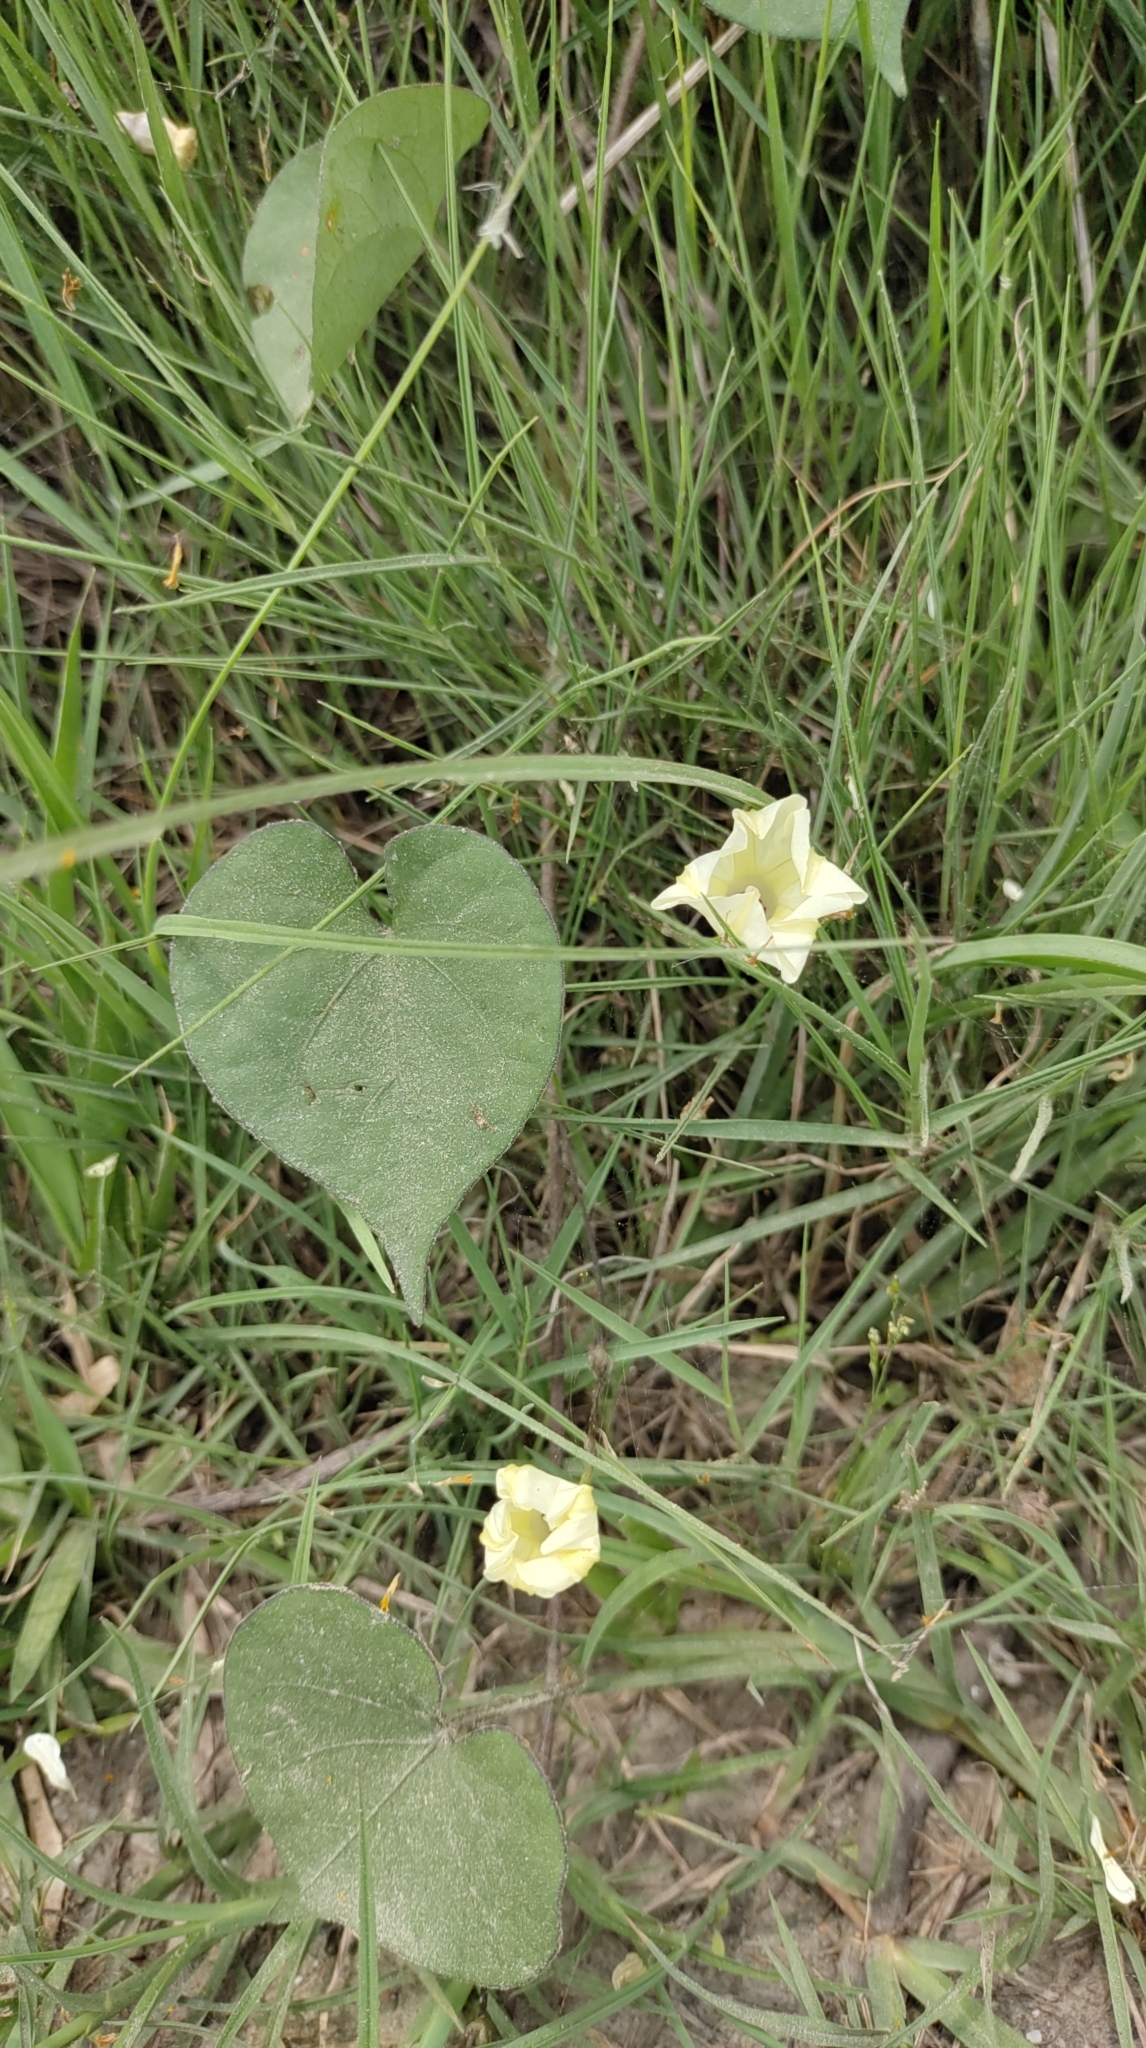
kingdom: Plantae
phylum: Tracheophyta
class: Magnoliopsida
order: Solanales
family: Convolvulaceae
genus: Ipomoea
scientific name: Ipomoea obscura
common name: Obscure morning-glory
